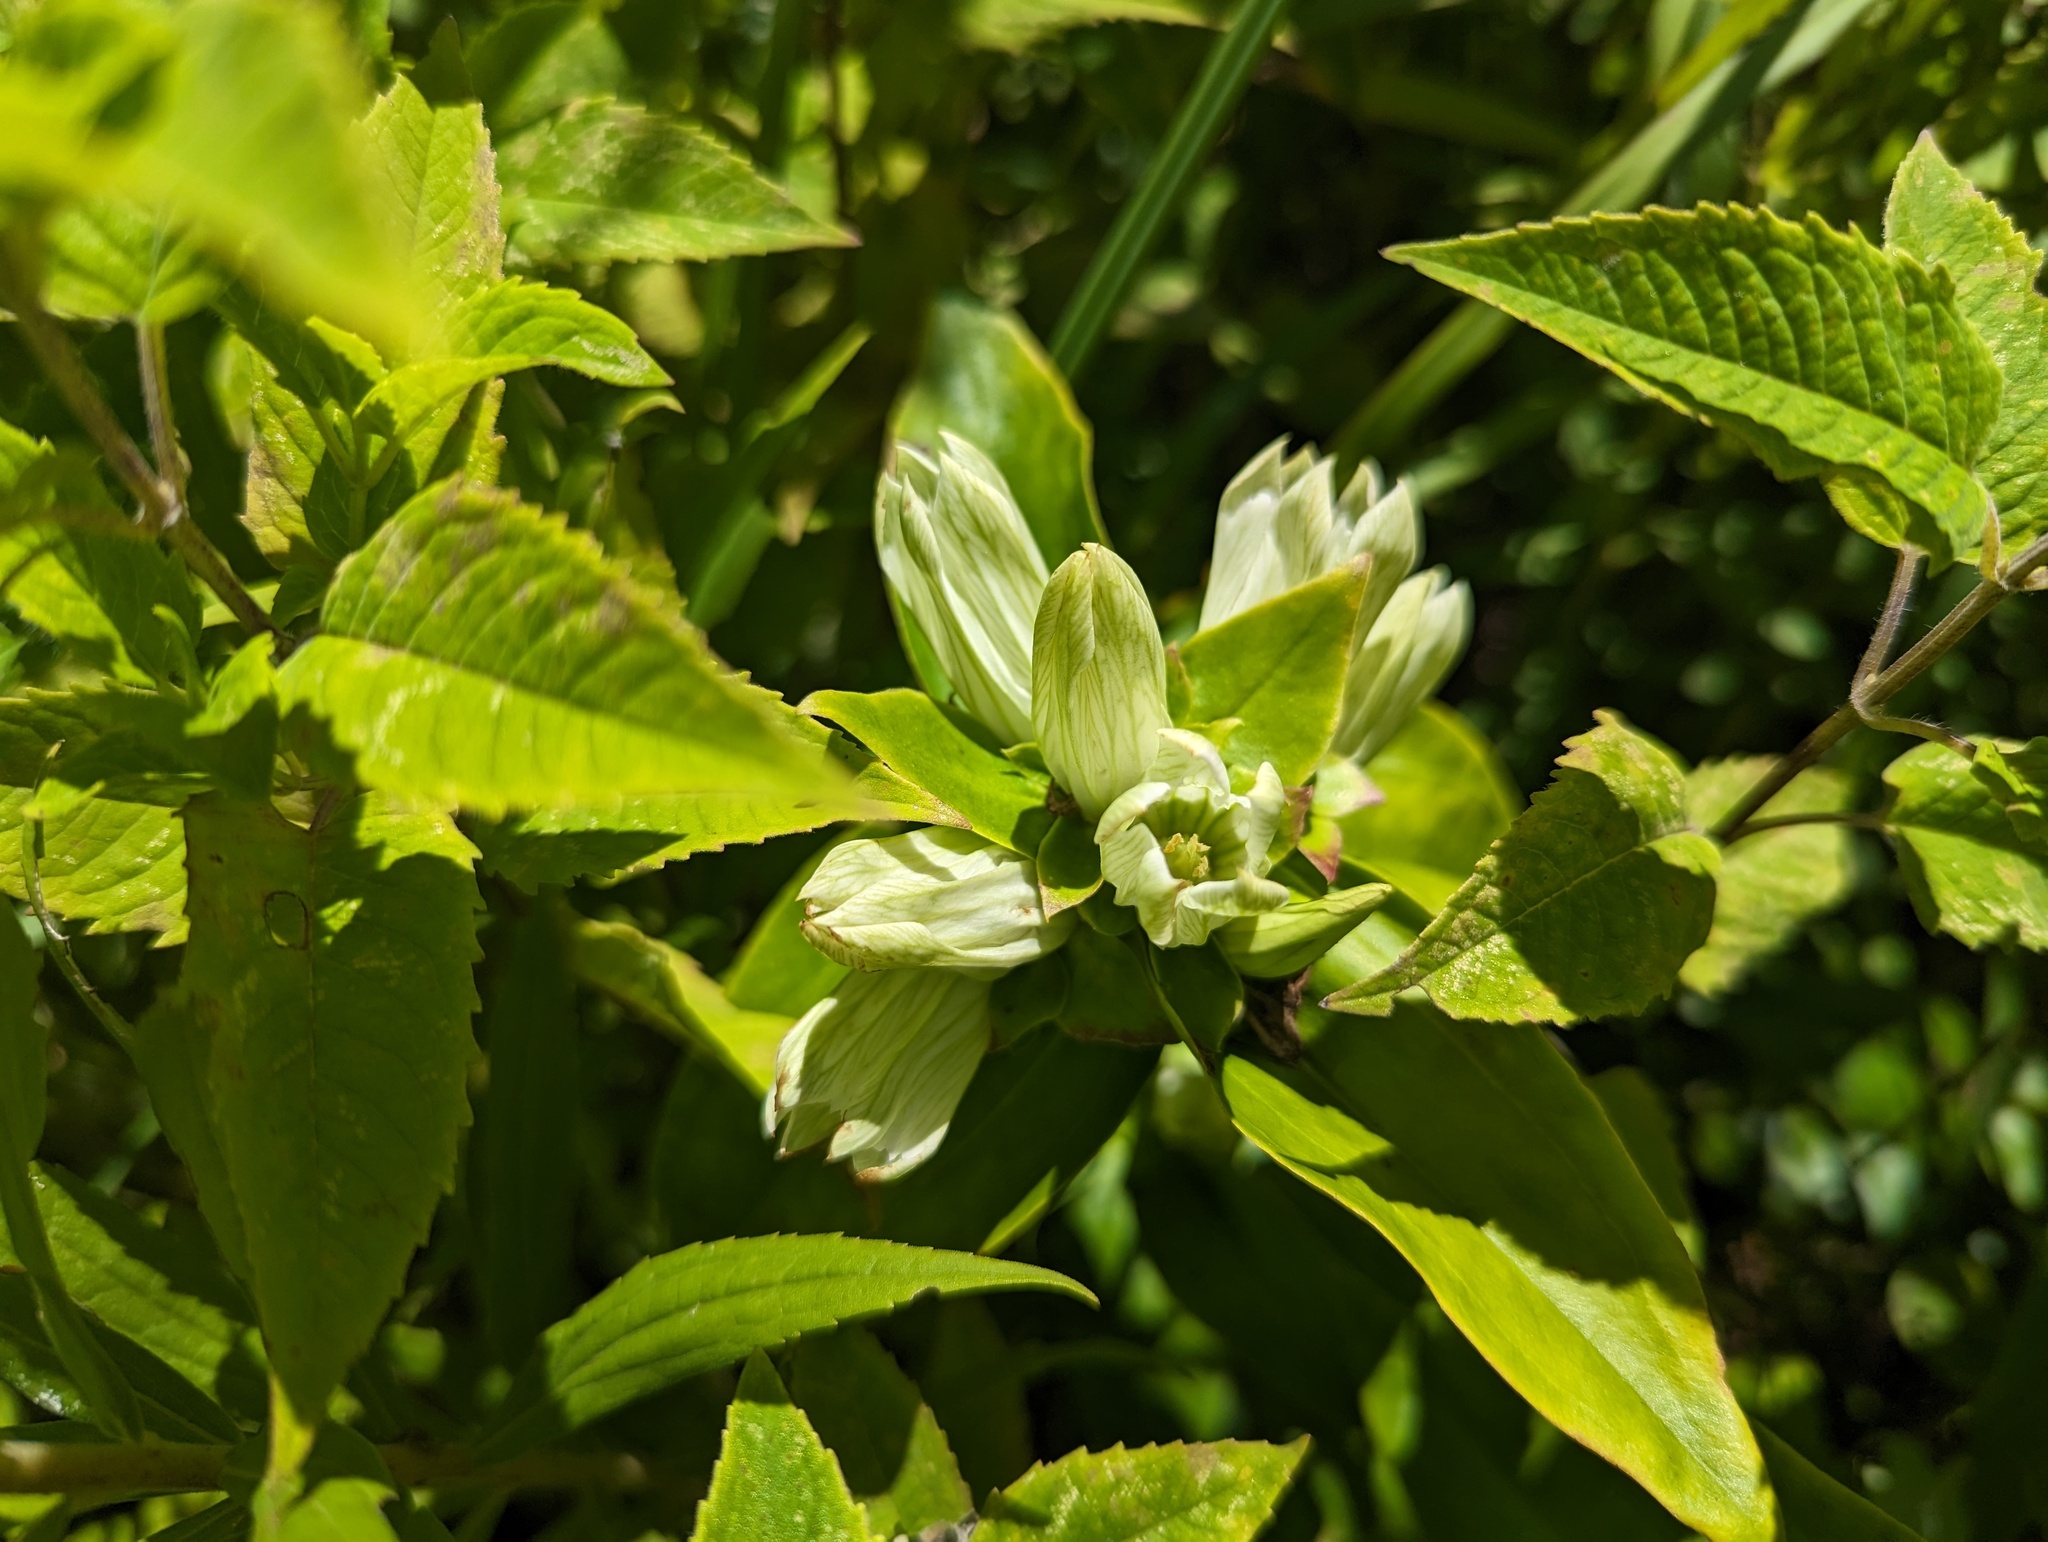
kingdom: Plantae
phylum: Tracheophyta
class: Magnoliopsida
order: Gentianales
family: Gentianaceae
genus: Gentiana
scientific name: Gentiana alba
